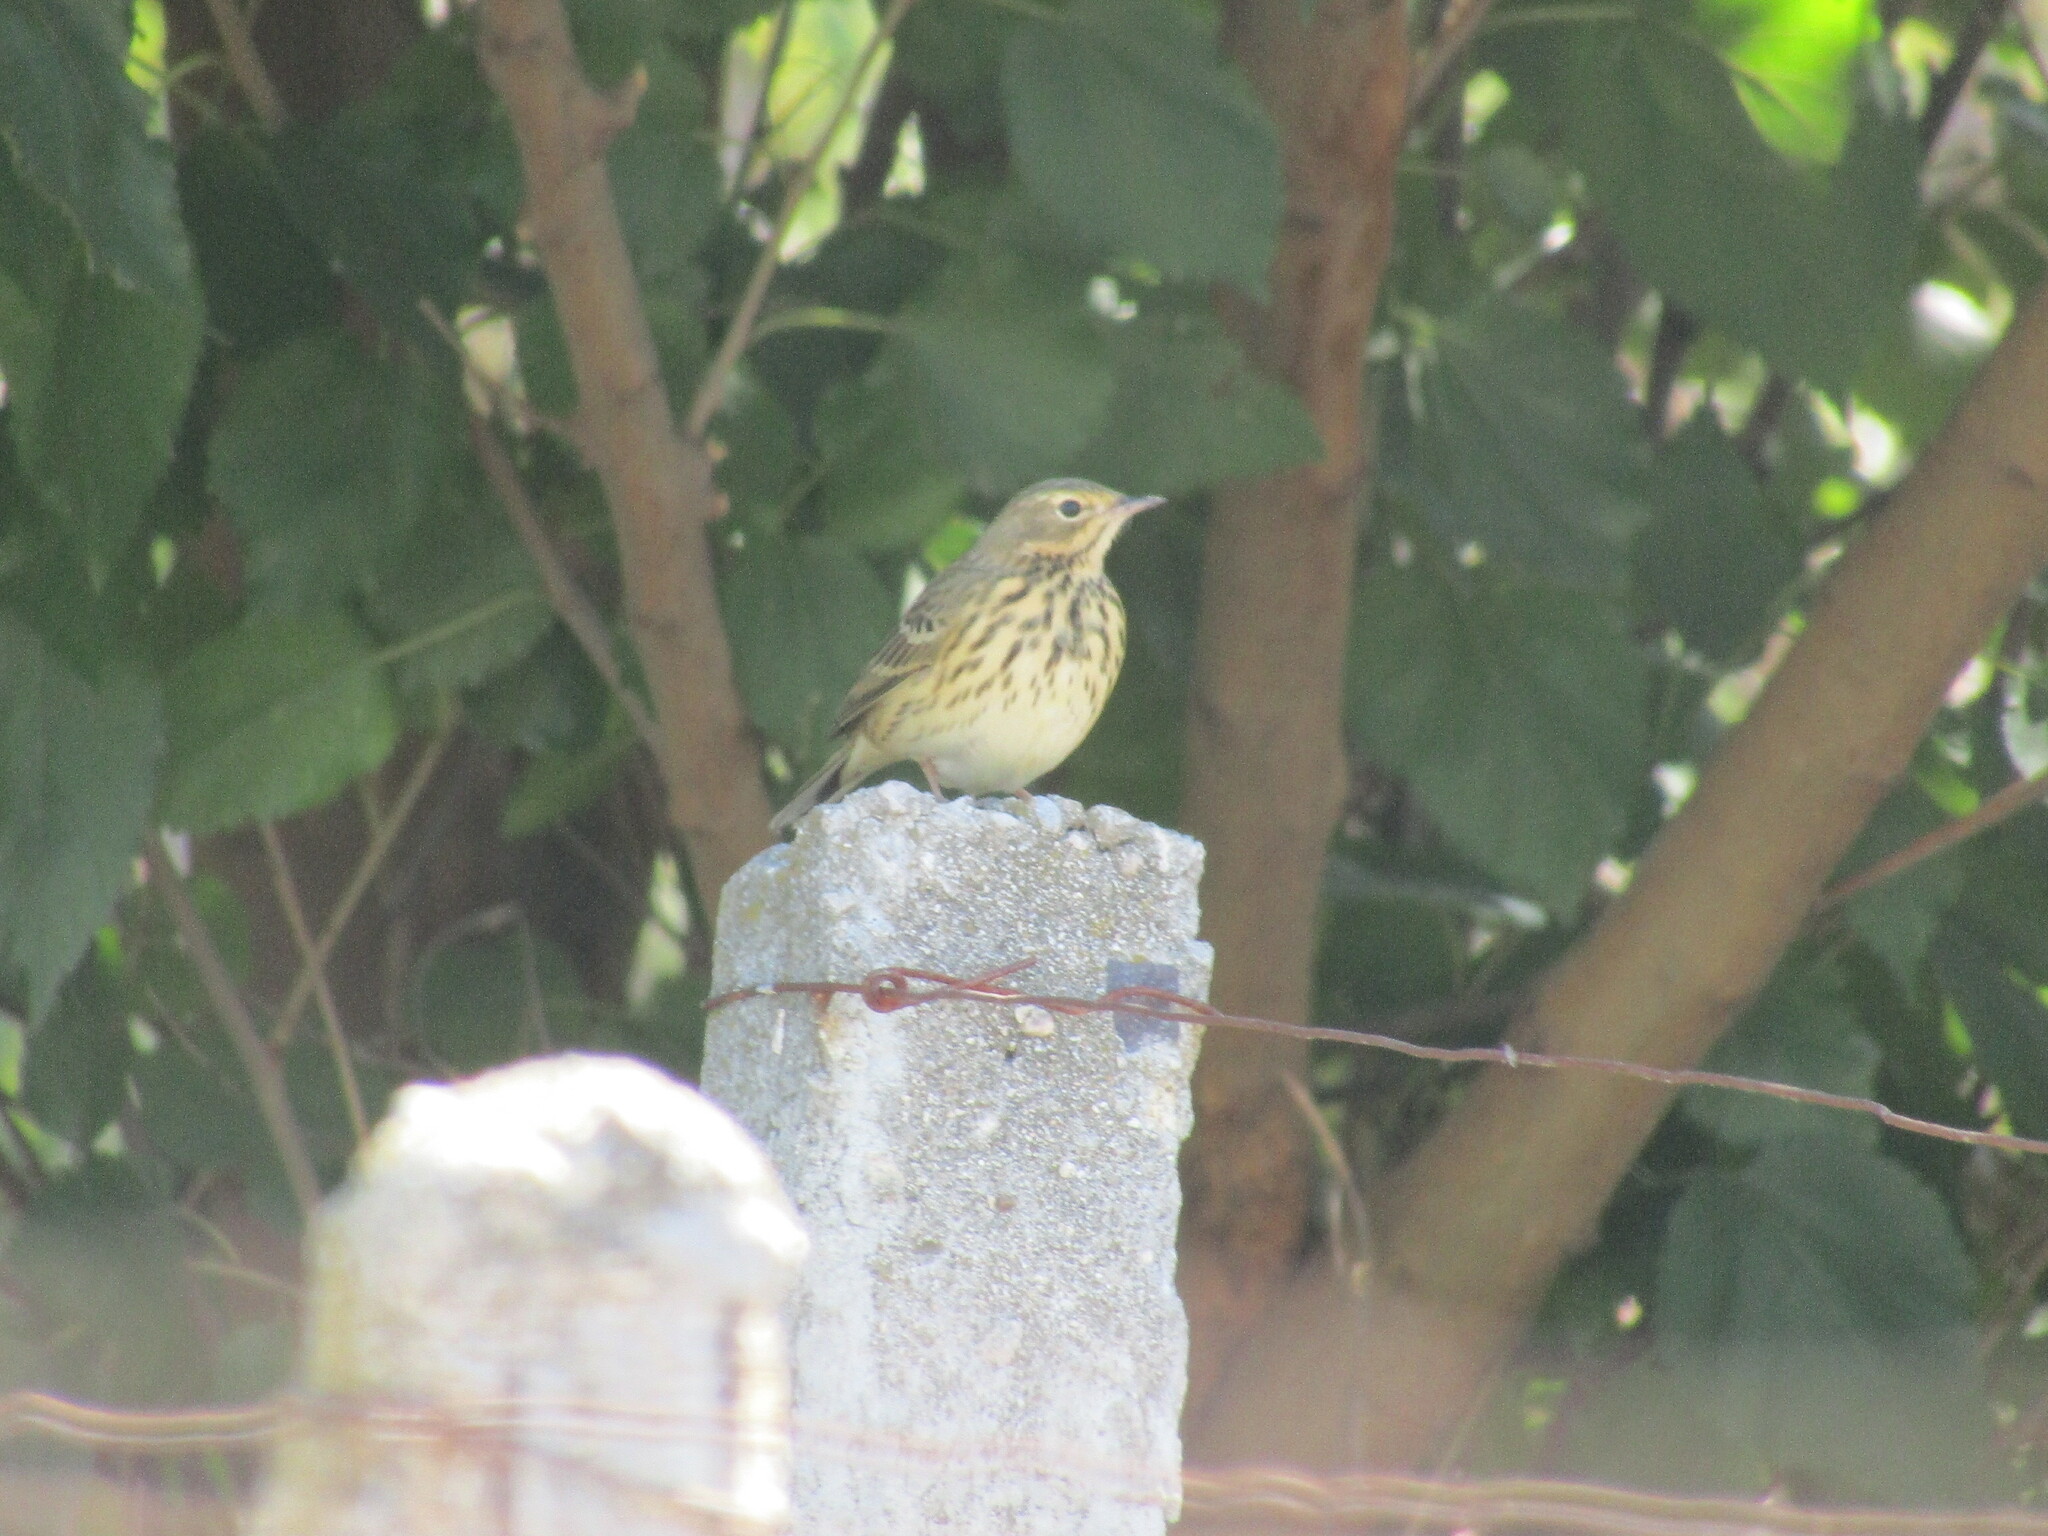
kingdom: Animalia
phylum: Chordata
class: Aves
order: Passeriformes
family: Motacillidae
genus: Anthus
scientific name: Anthus trivialis
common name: Tree pipit
